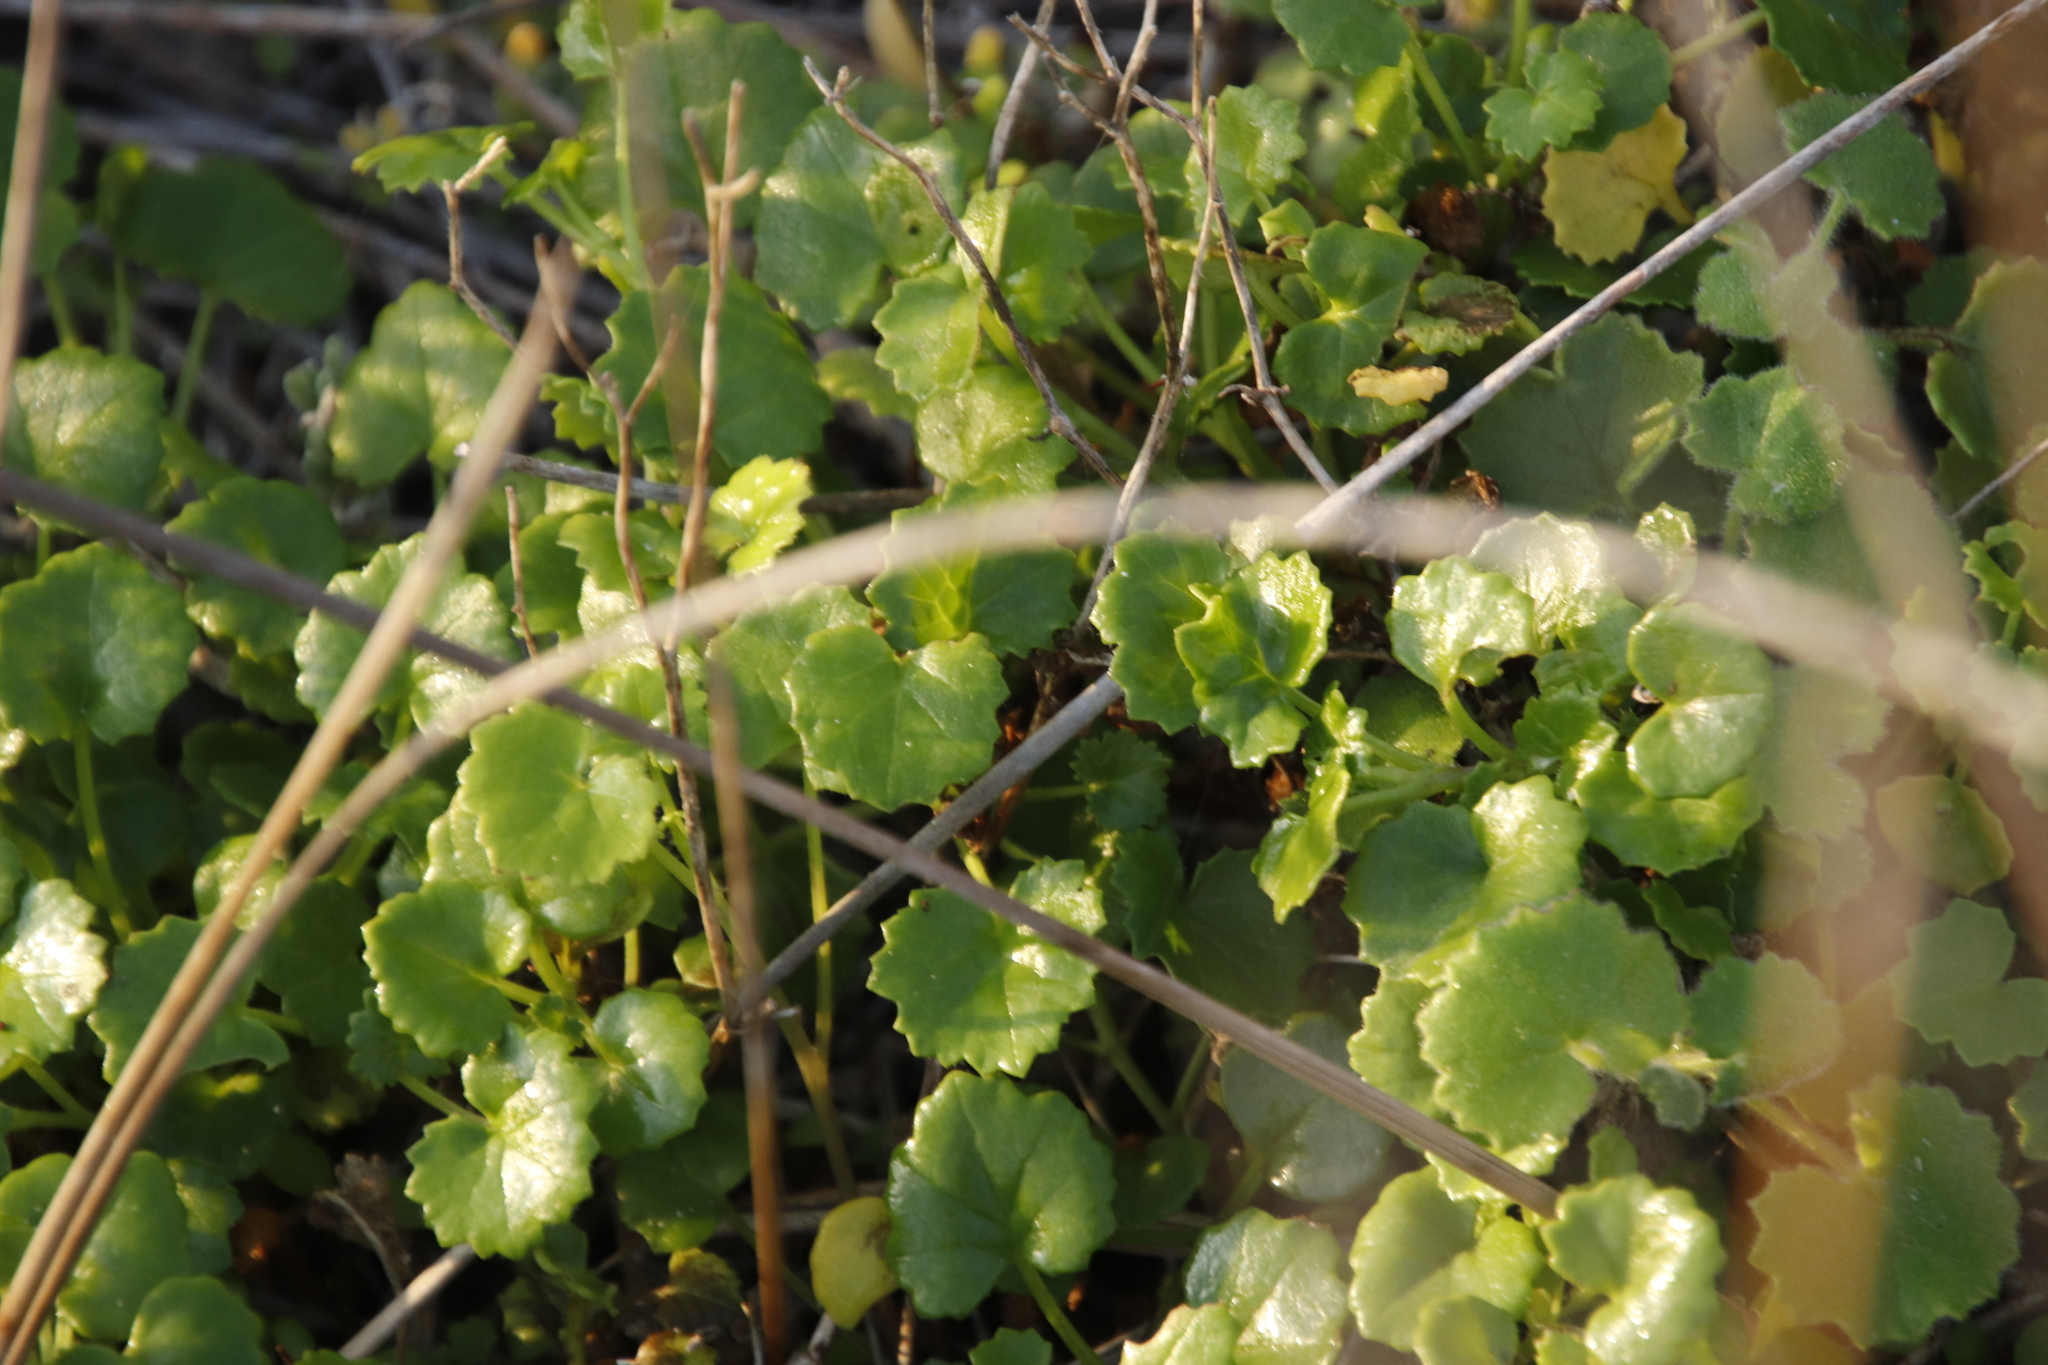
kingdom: Plantae
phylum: Tracheophyta
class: Magnoliopsida
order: Asterales
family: Asteraceae
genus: Cineraria
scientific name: Cineraria geifolia
